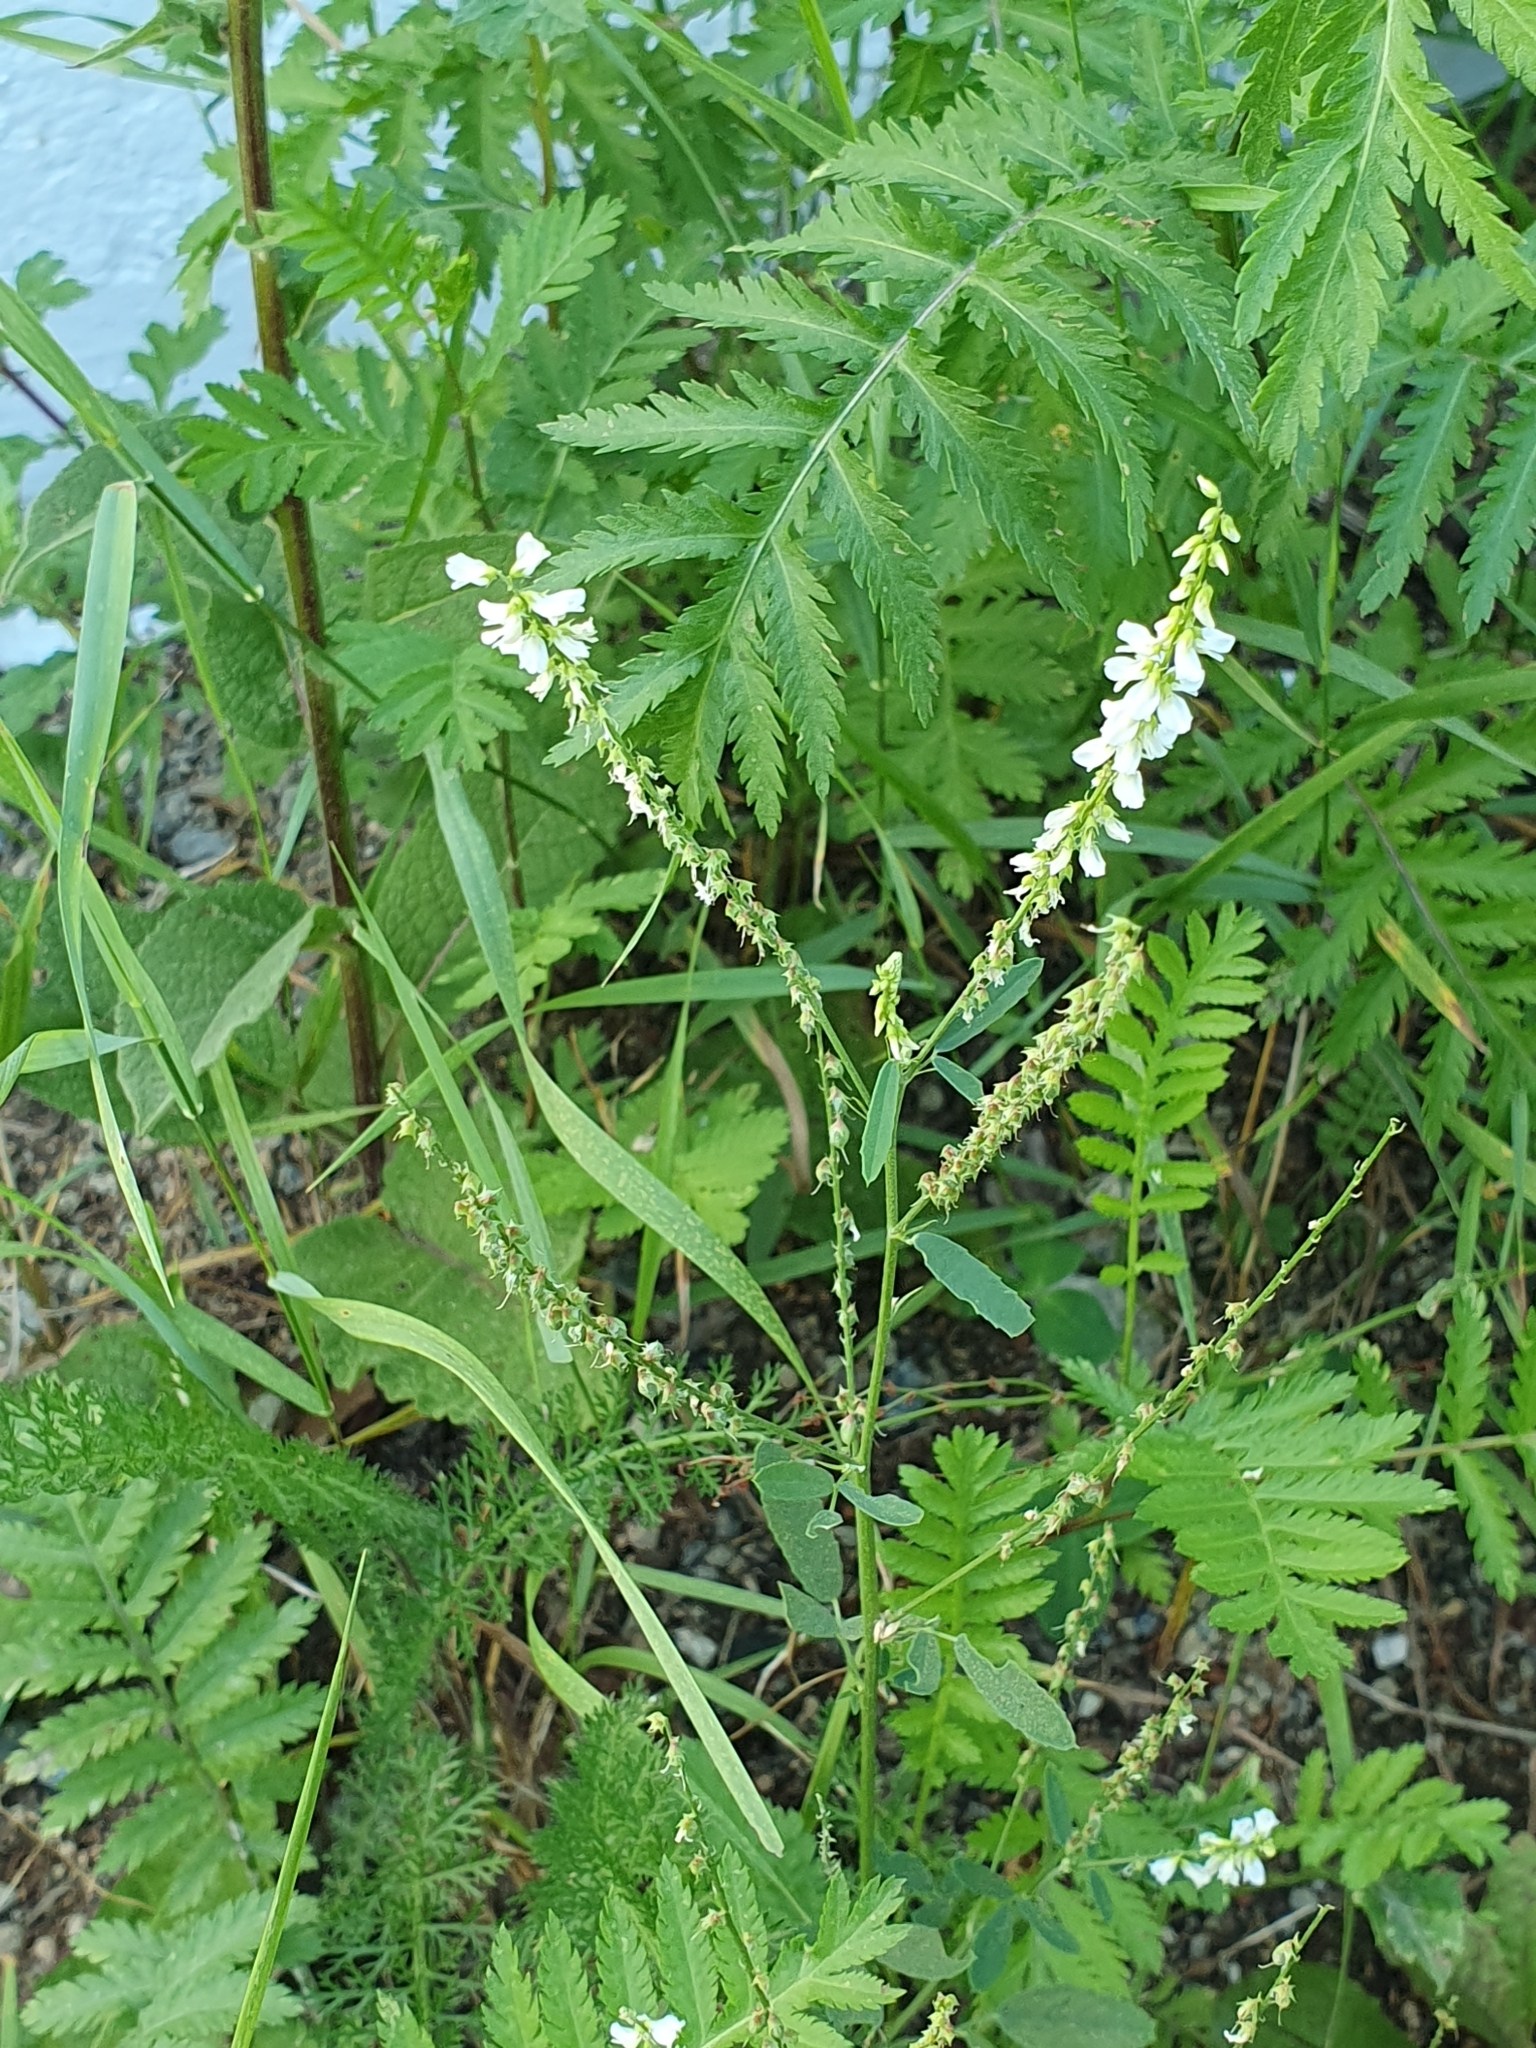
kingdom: Plantae
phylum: Tracheophyta
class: Magnoliopsida
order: Fabales
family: Fabaceae
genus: Melilotus
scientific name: Melilotus albus
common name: White melilot
